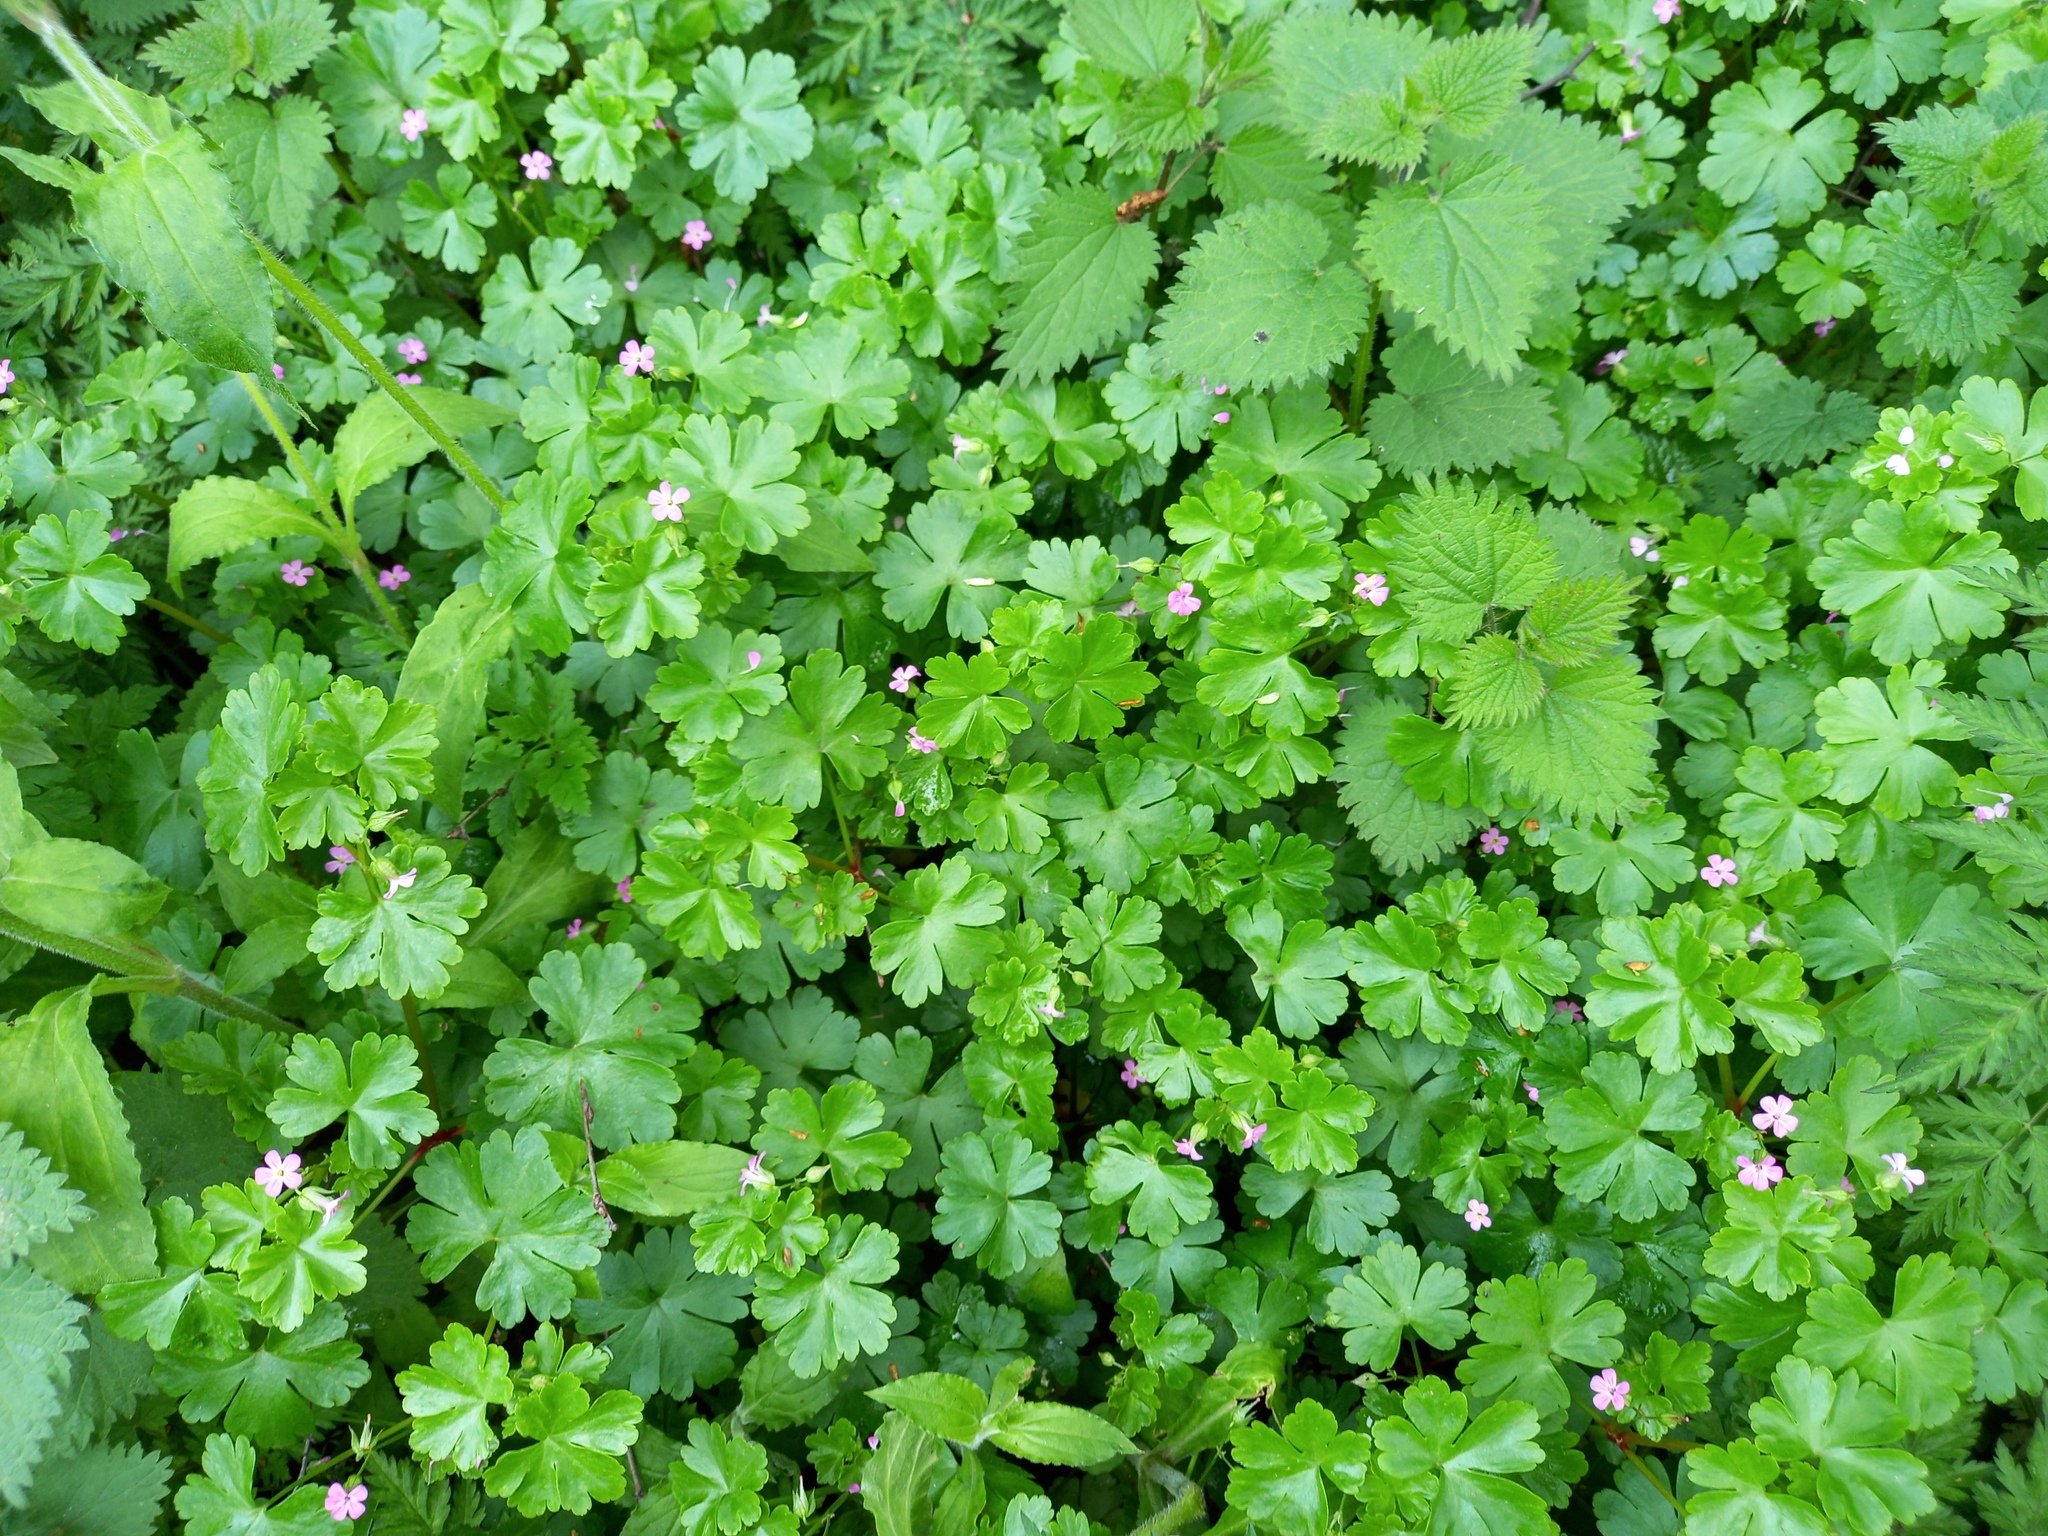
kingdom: Plantae
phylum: Tracheophyta
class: Magnoliopsida
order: Geraniales
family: Geraniaceae
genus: Geranium
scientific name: Geranium lucidum
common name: Shining crane's-bill
